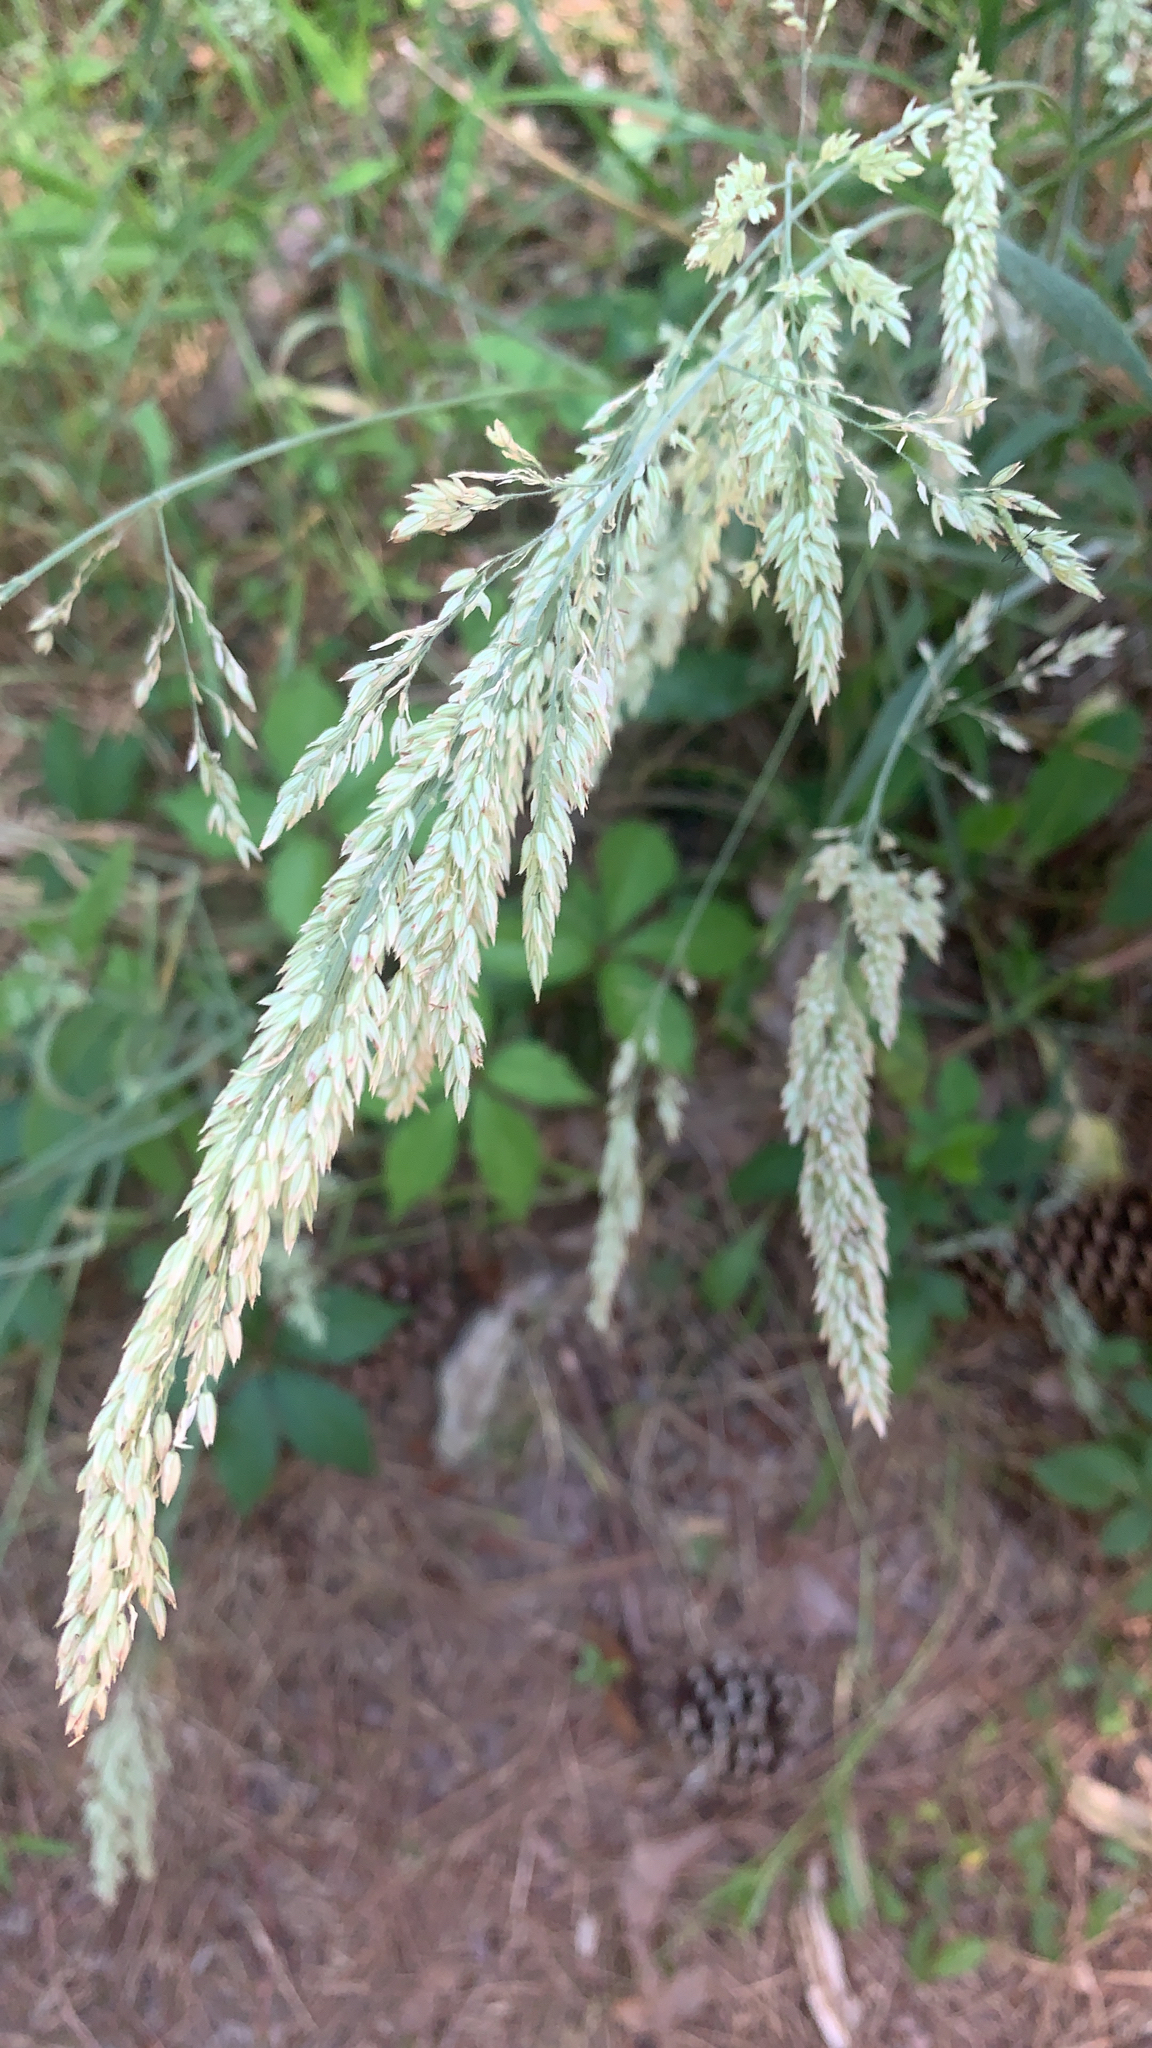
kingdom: Plantae
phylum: Tracheophyta
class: Liliopsida
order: Poales
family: Poaceae
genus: Holcus
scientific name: Holcus lanatus
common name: Yorkshire-fog
